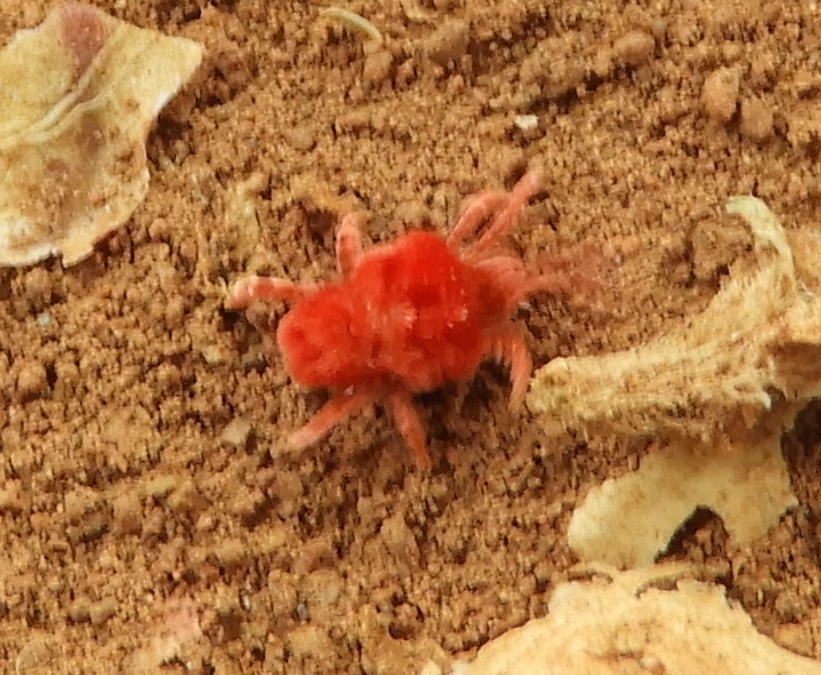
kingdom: Animalia
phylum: Arthropoda
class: Arachnida
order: Trombidiformes
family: Leeuwenhoekiidae
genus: Dinothrombium
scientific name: Dinothrombium
